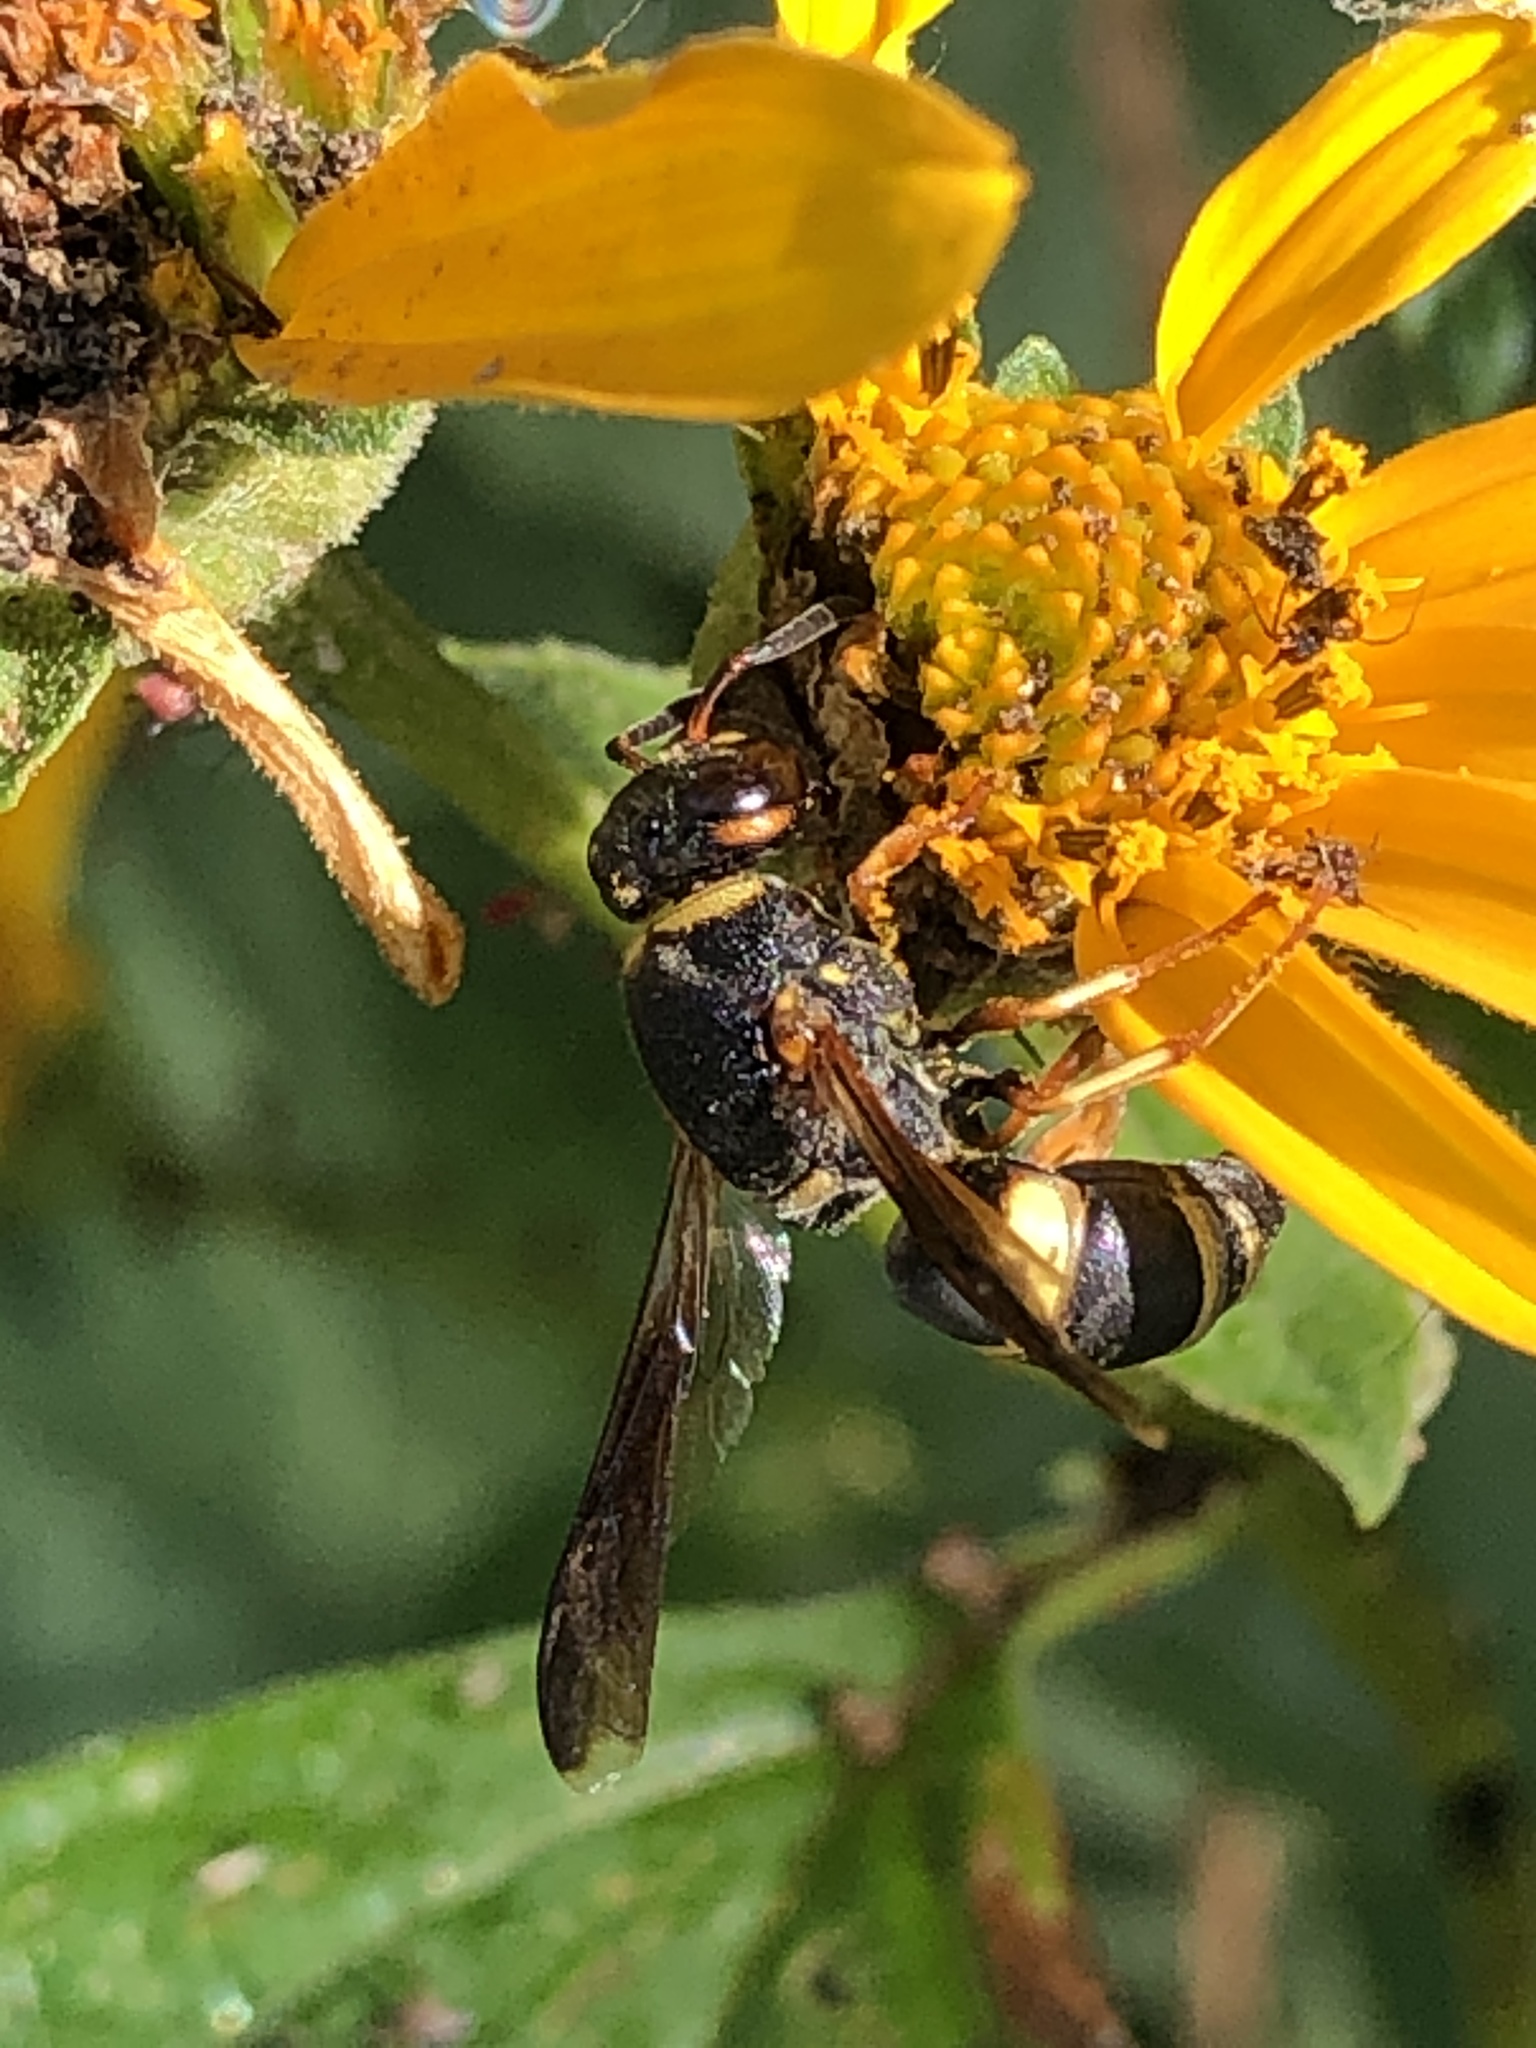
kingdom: Animalia
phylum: Arthropoda
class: Insecta
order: Hymenoptera
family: Eumenidae
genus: Euodynerus
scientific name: Euodynerus hidalgo
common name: Wasp
